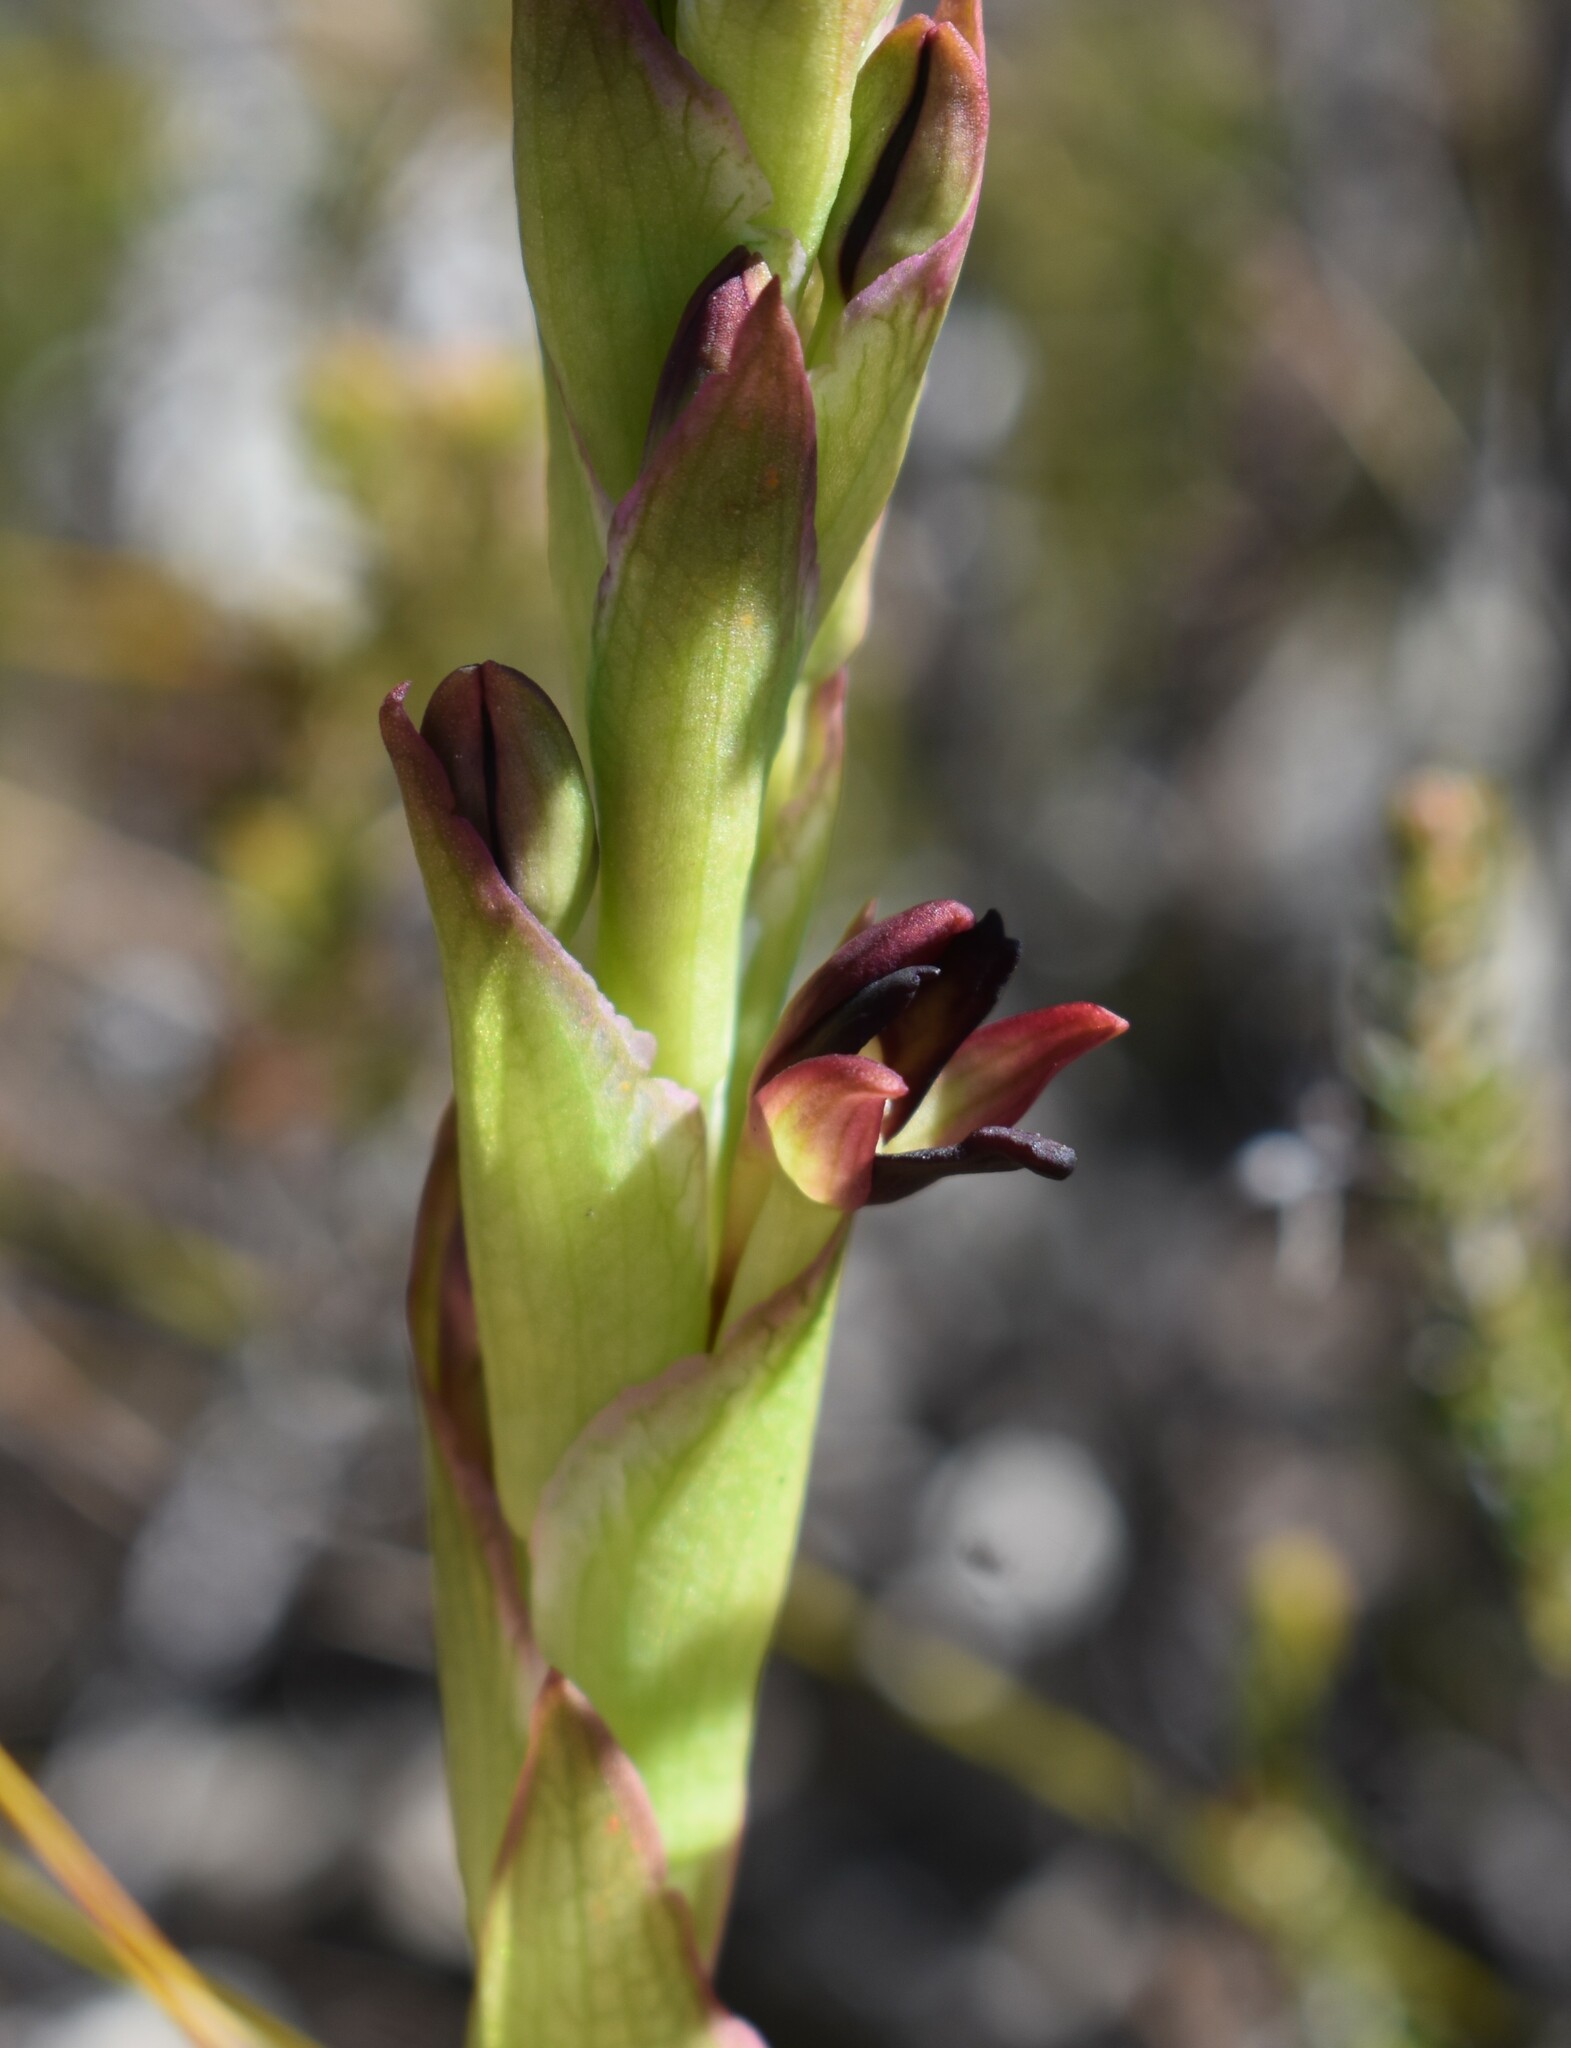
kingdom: Plantae
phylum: Tracheophyta
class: Liliopsida
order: Asparagales
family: Orchidaceae
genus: Disa
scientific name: Disa comosa
